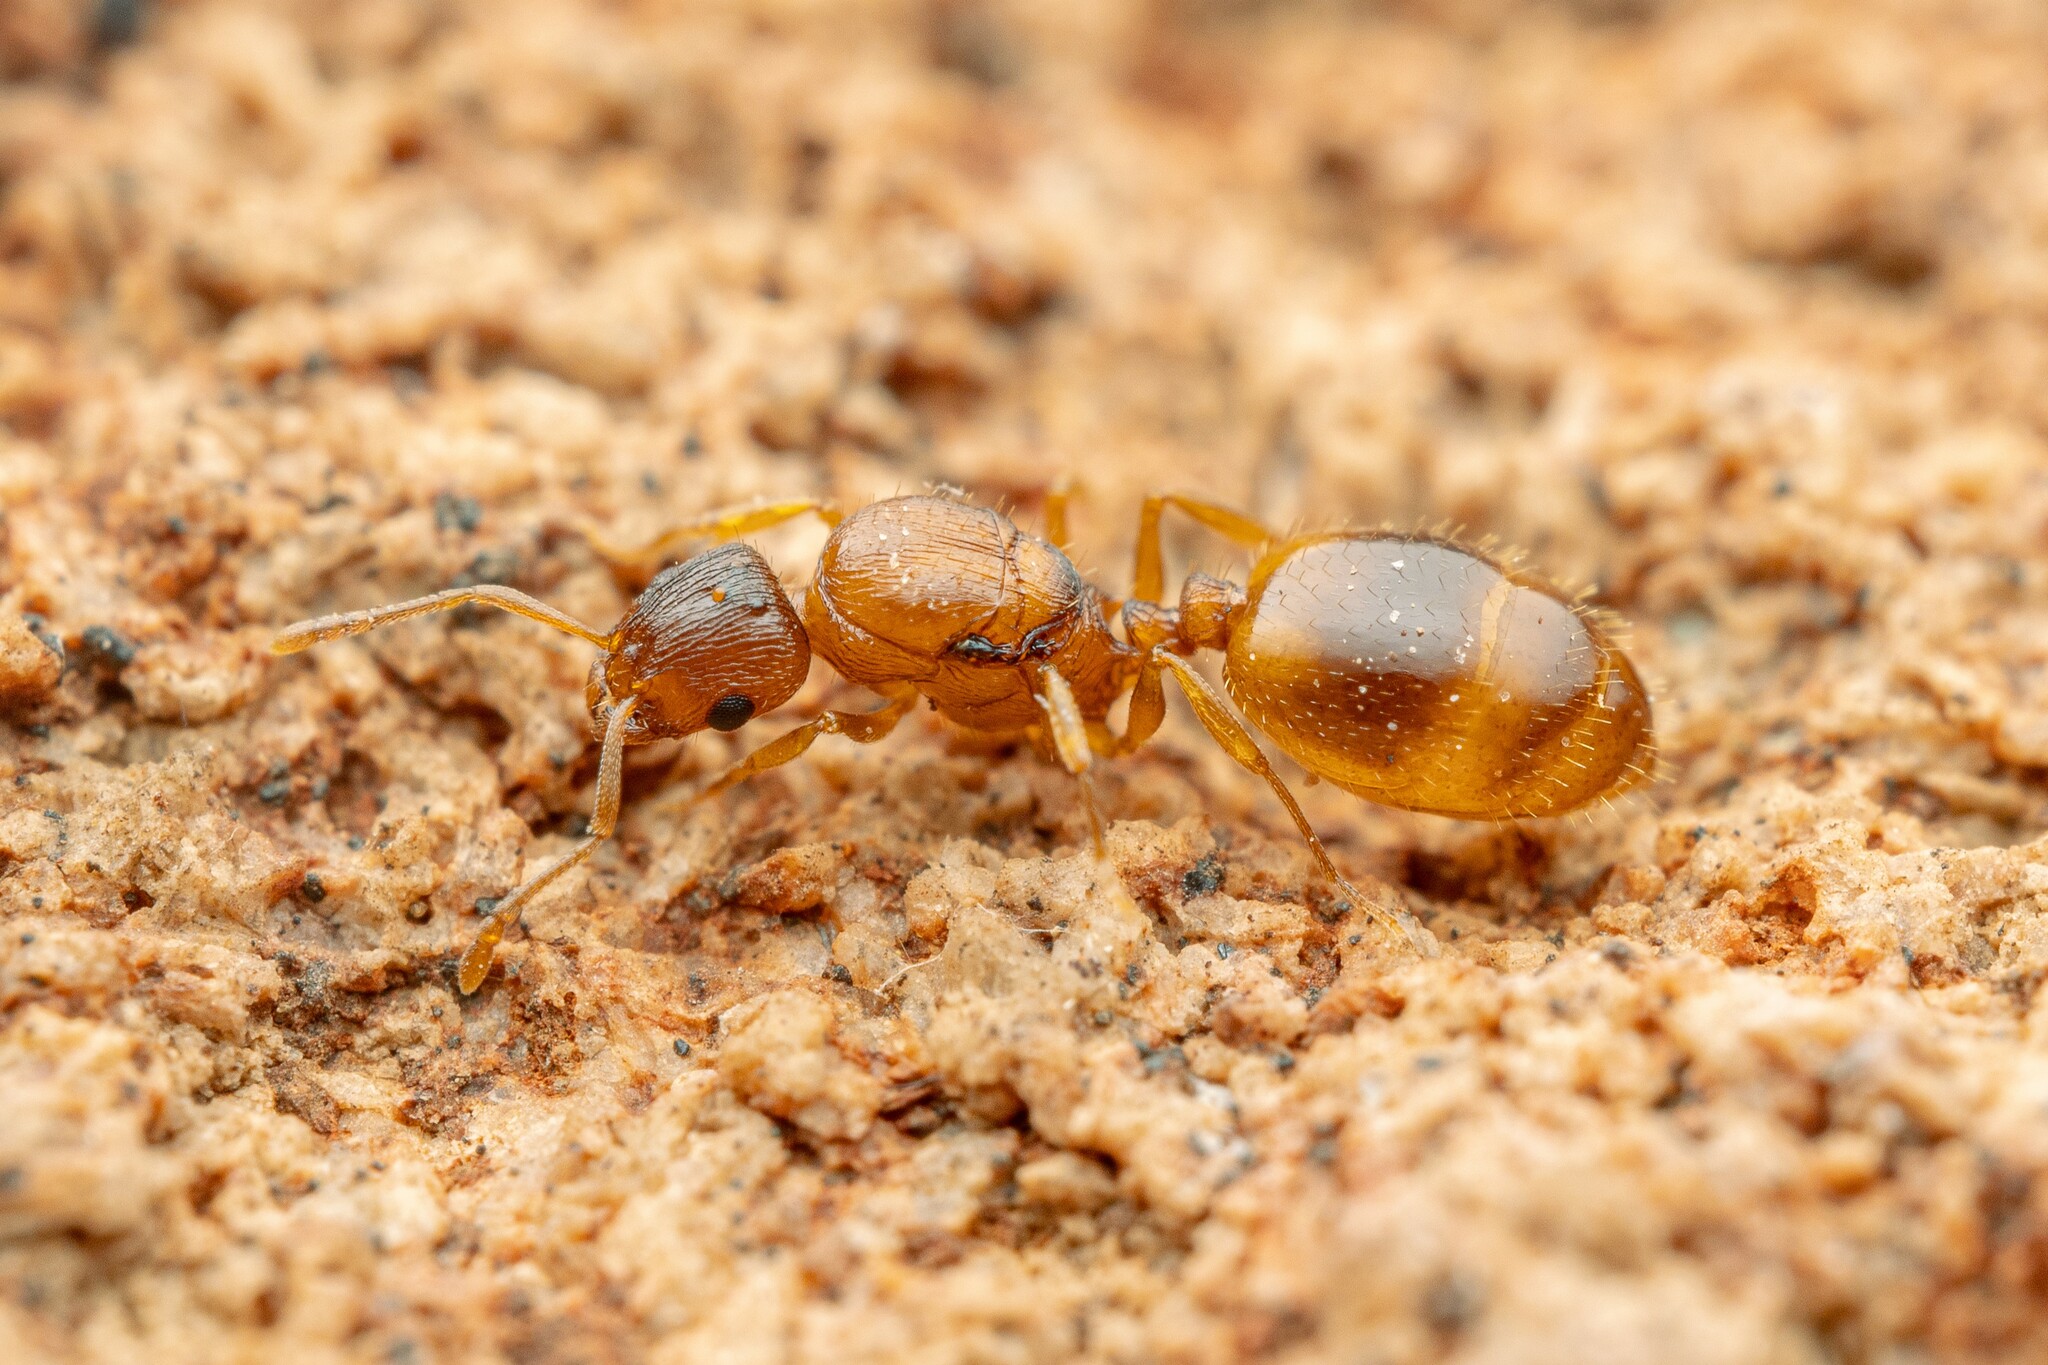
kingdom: Animalia
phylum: Arthropoda
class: Insecta
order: Hymenoptera
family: Formicidae
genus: Leptothorax
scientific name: Leptothorax rugatulus
